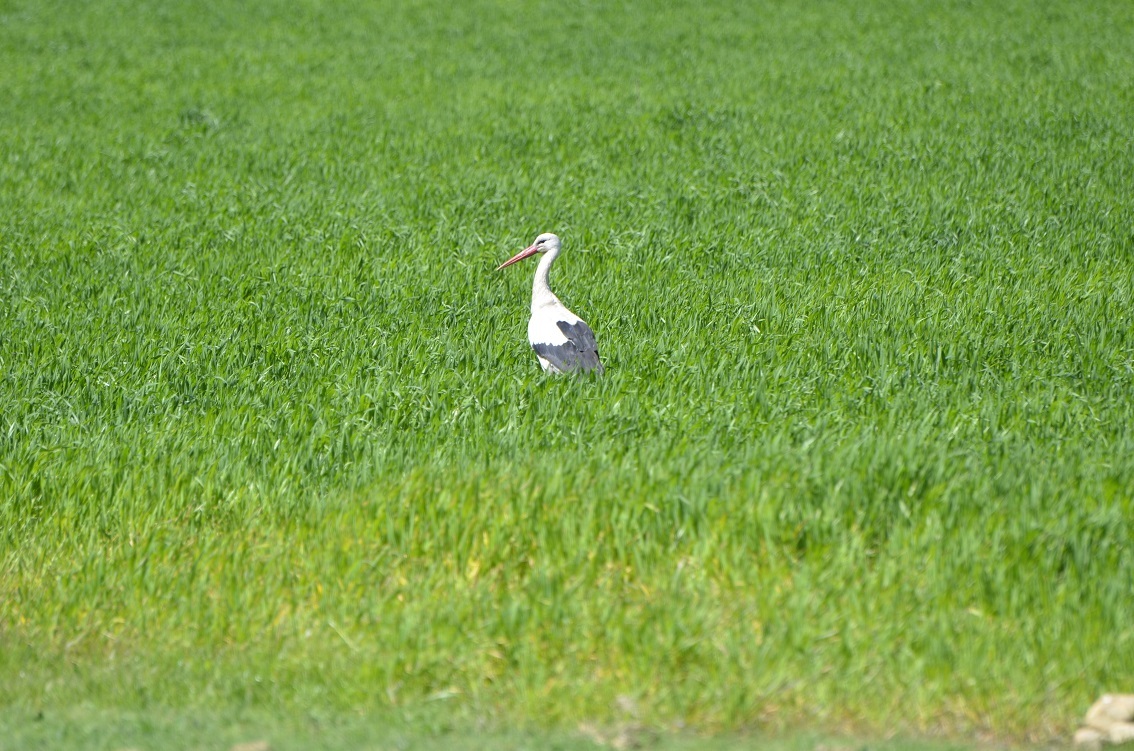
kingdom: Animalia
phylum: Chordata
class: Aves
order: Ciconiiformes
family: Ciconiidae
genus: Ciconia
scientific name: Ciconia ciconia
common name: White stork
